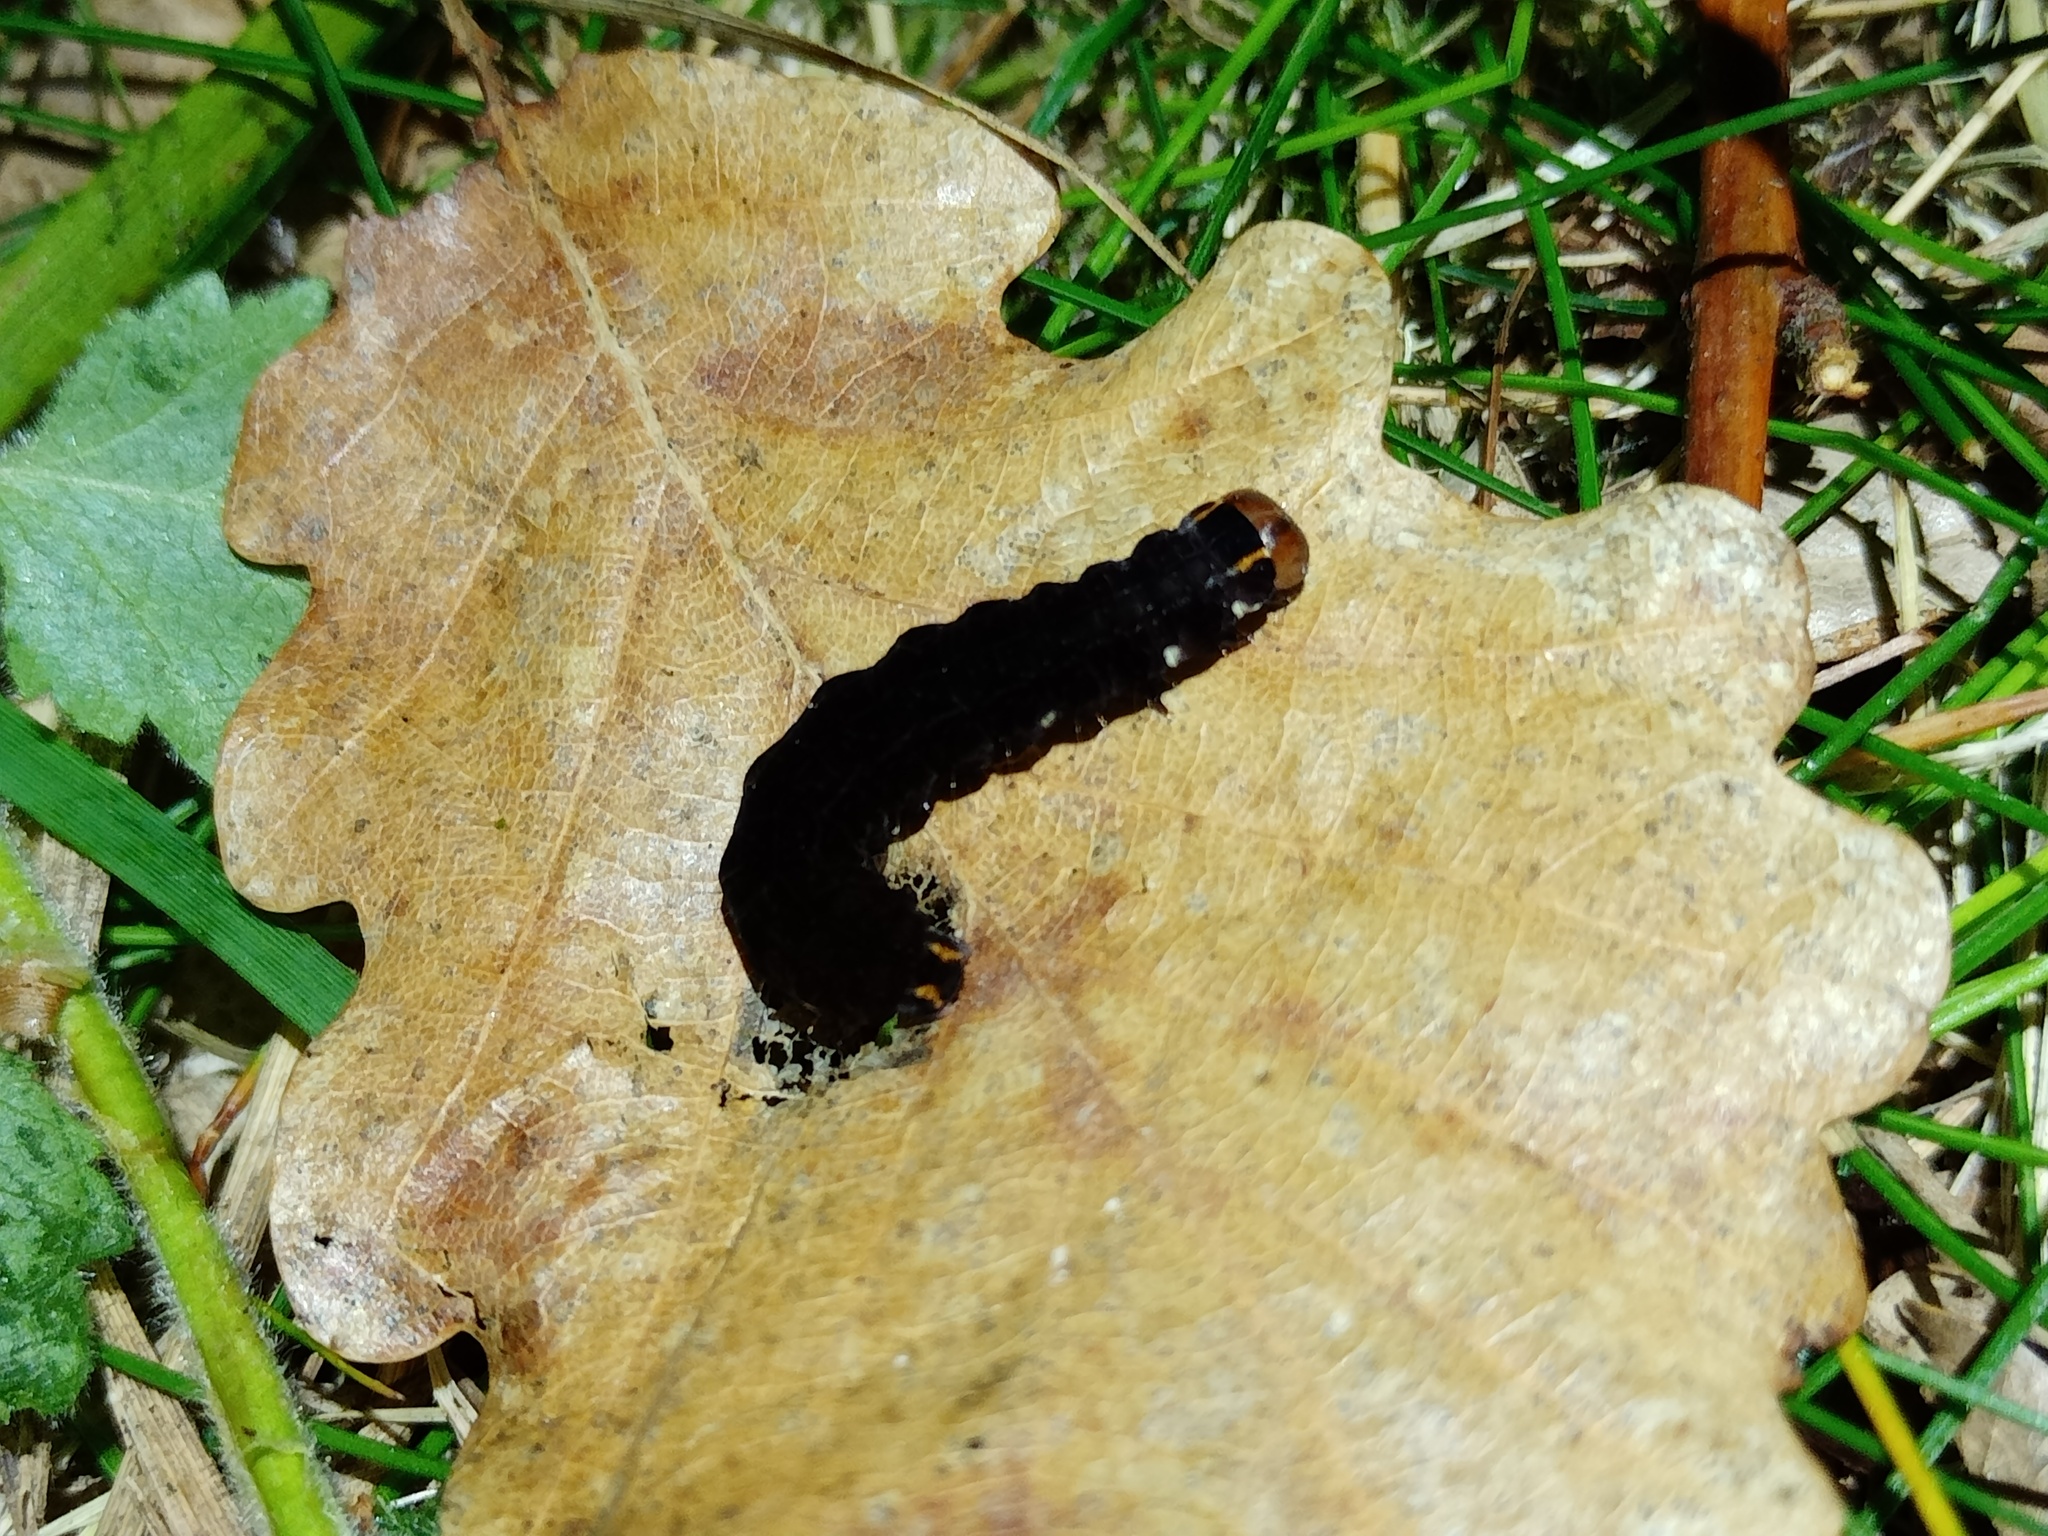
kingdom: Animalia
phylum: Arthropoda
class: Insecta
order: Lepidoptera
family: Noctuidae
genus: Eupsilia
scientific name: Eupsilia transversa
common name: Satellite
